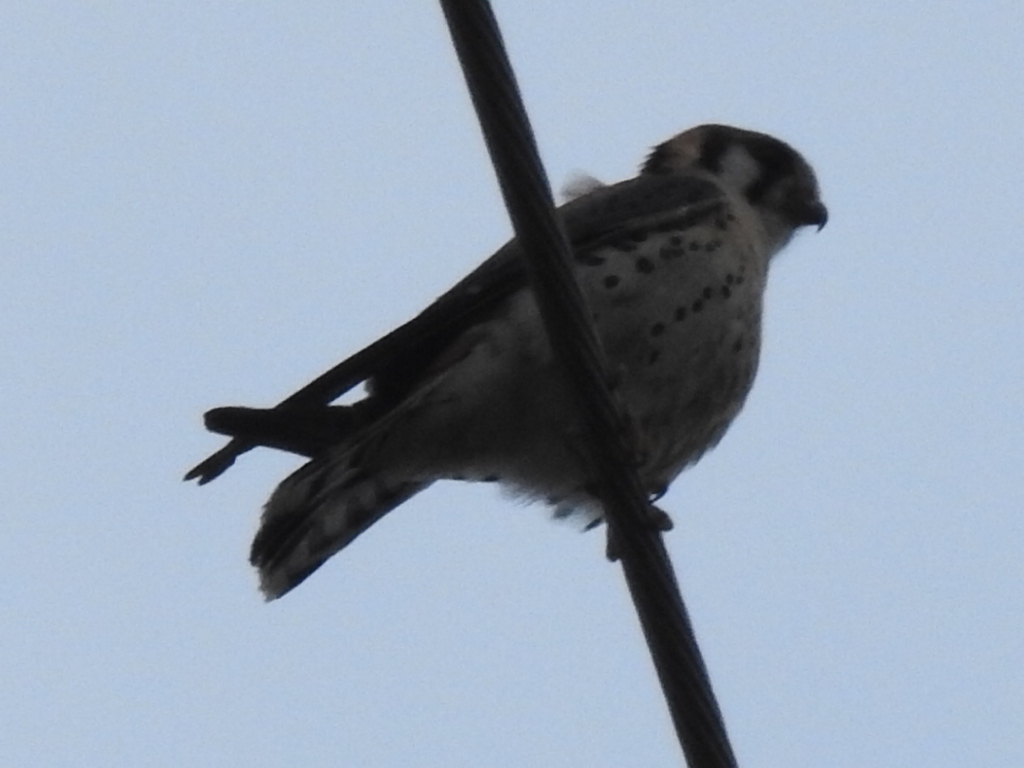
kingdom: Animalia
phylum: Chordata
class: Aves
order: Falconiformes
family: Falconidae
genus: Falco
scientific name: Falco sparverius
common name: American kestrel
